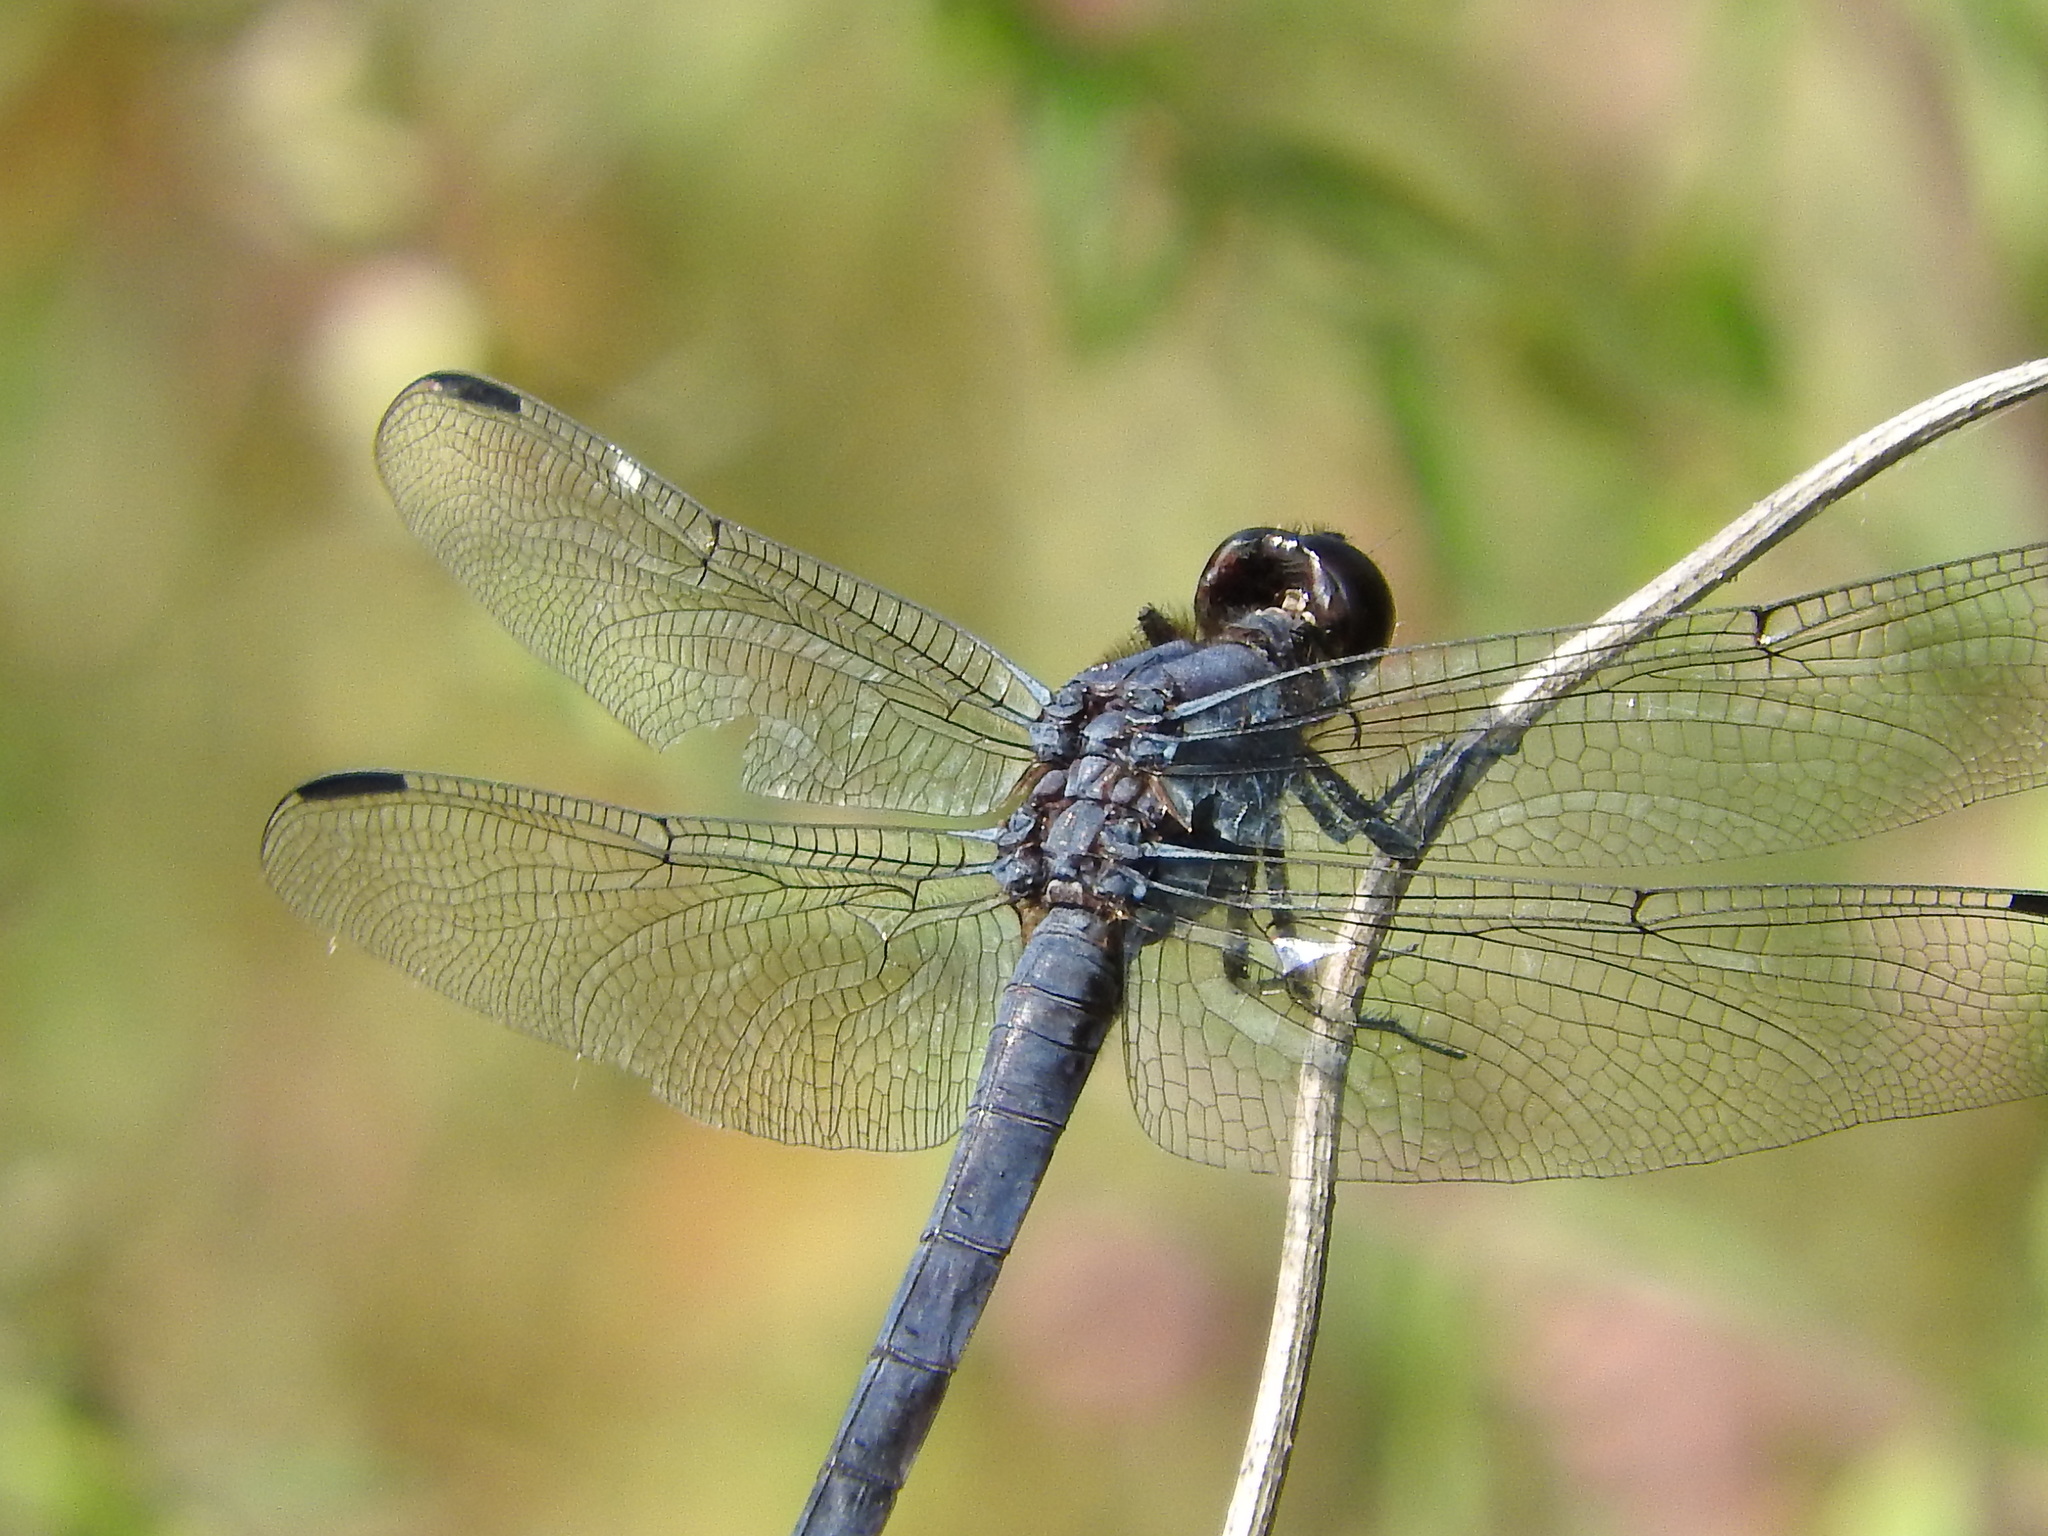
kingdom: Animalia
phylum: Arthropoda
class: Insecta
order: Odonata
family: Libellulidae
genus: Libellula
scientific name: Libellula incesta
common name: Slaty skimmer
